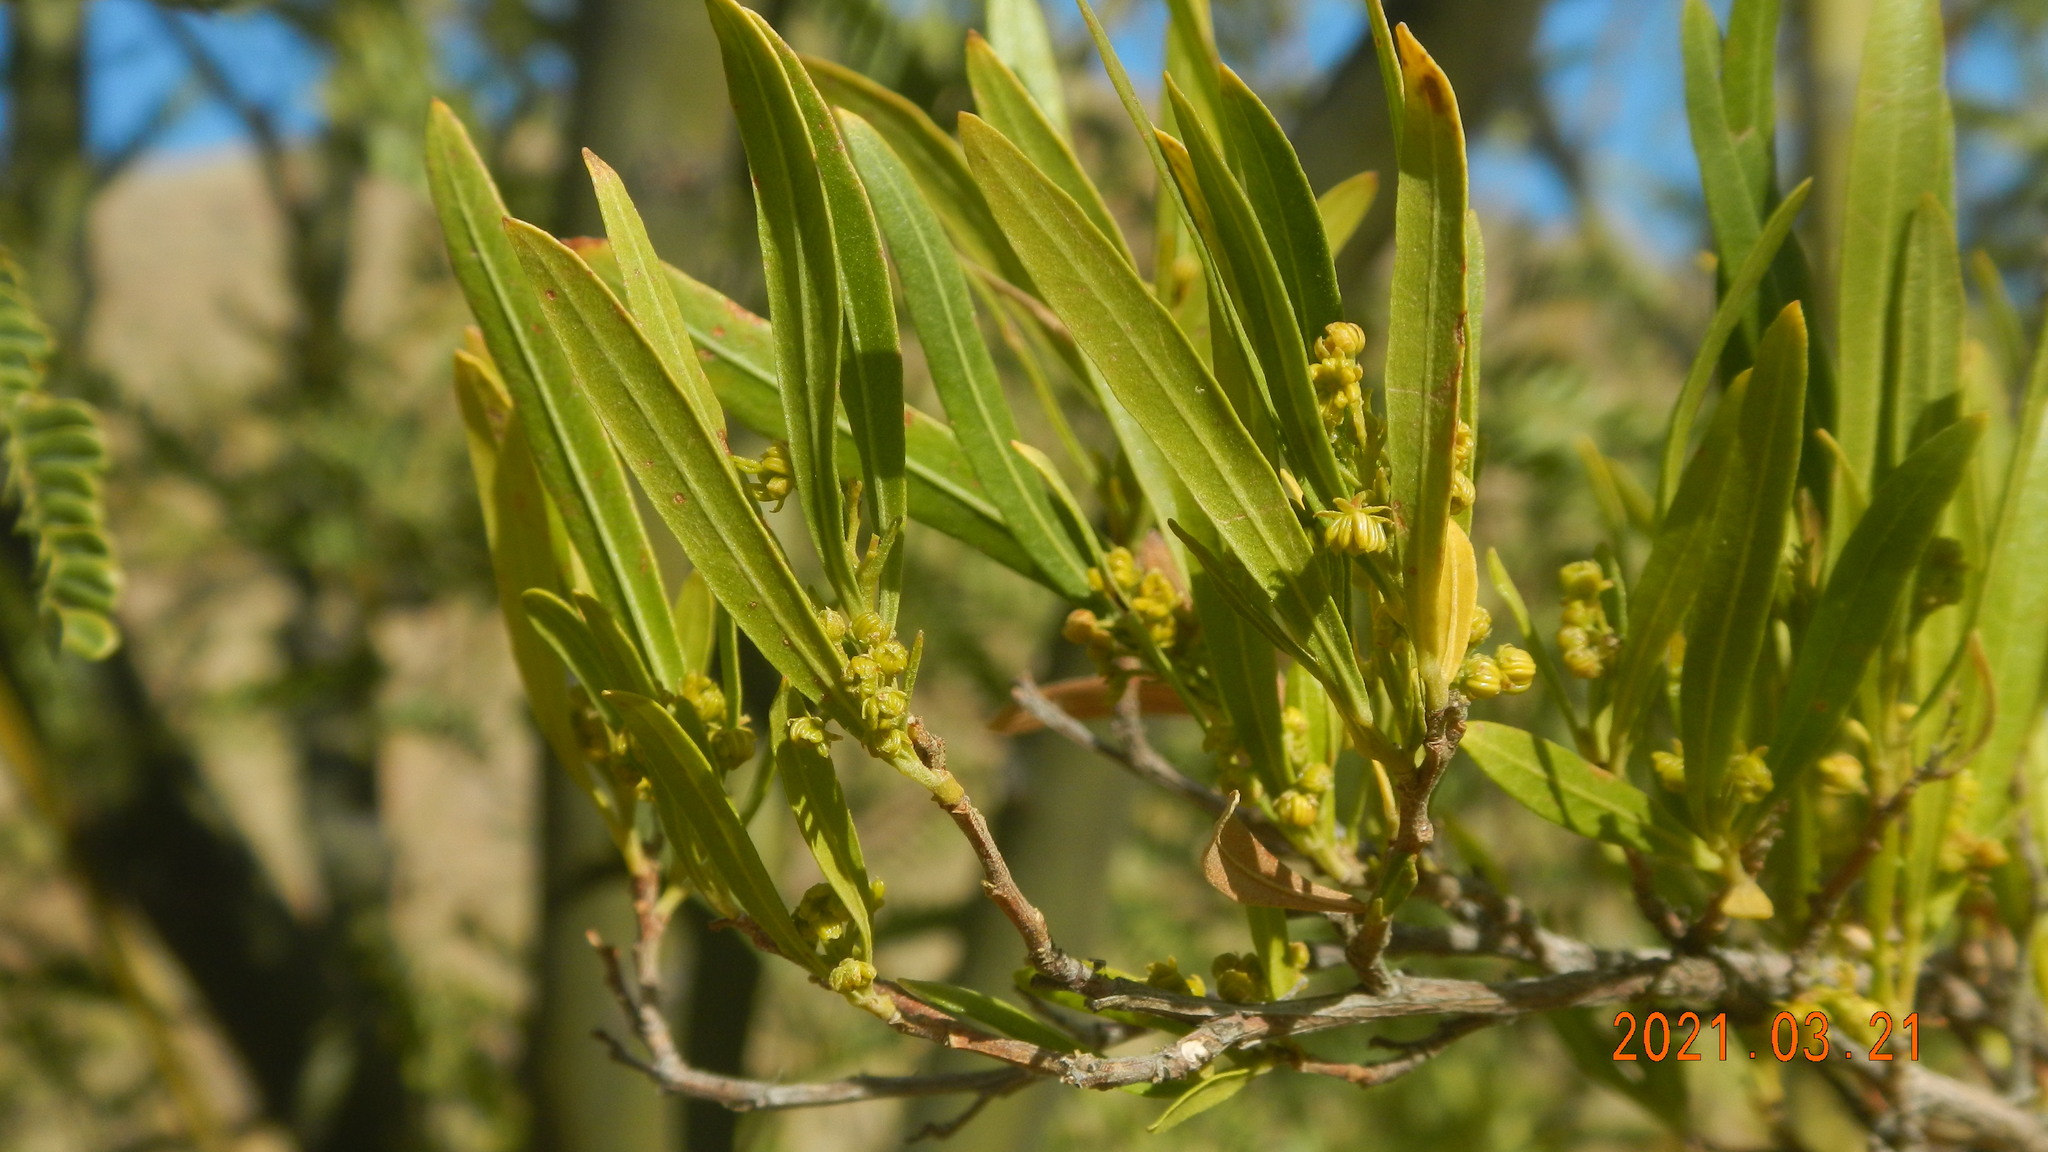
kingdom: Plantae
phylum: Tracheophyta
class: Magnoliopsida
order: Sapindales
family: Sapindaceae
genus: Dodonaea
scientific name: Dodonaea viscosa
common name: Hopbush
